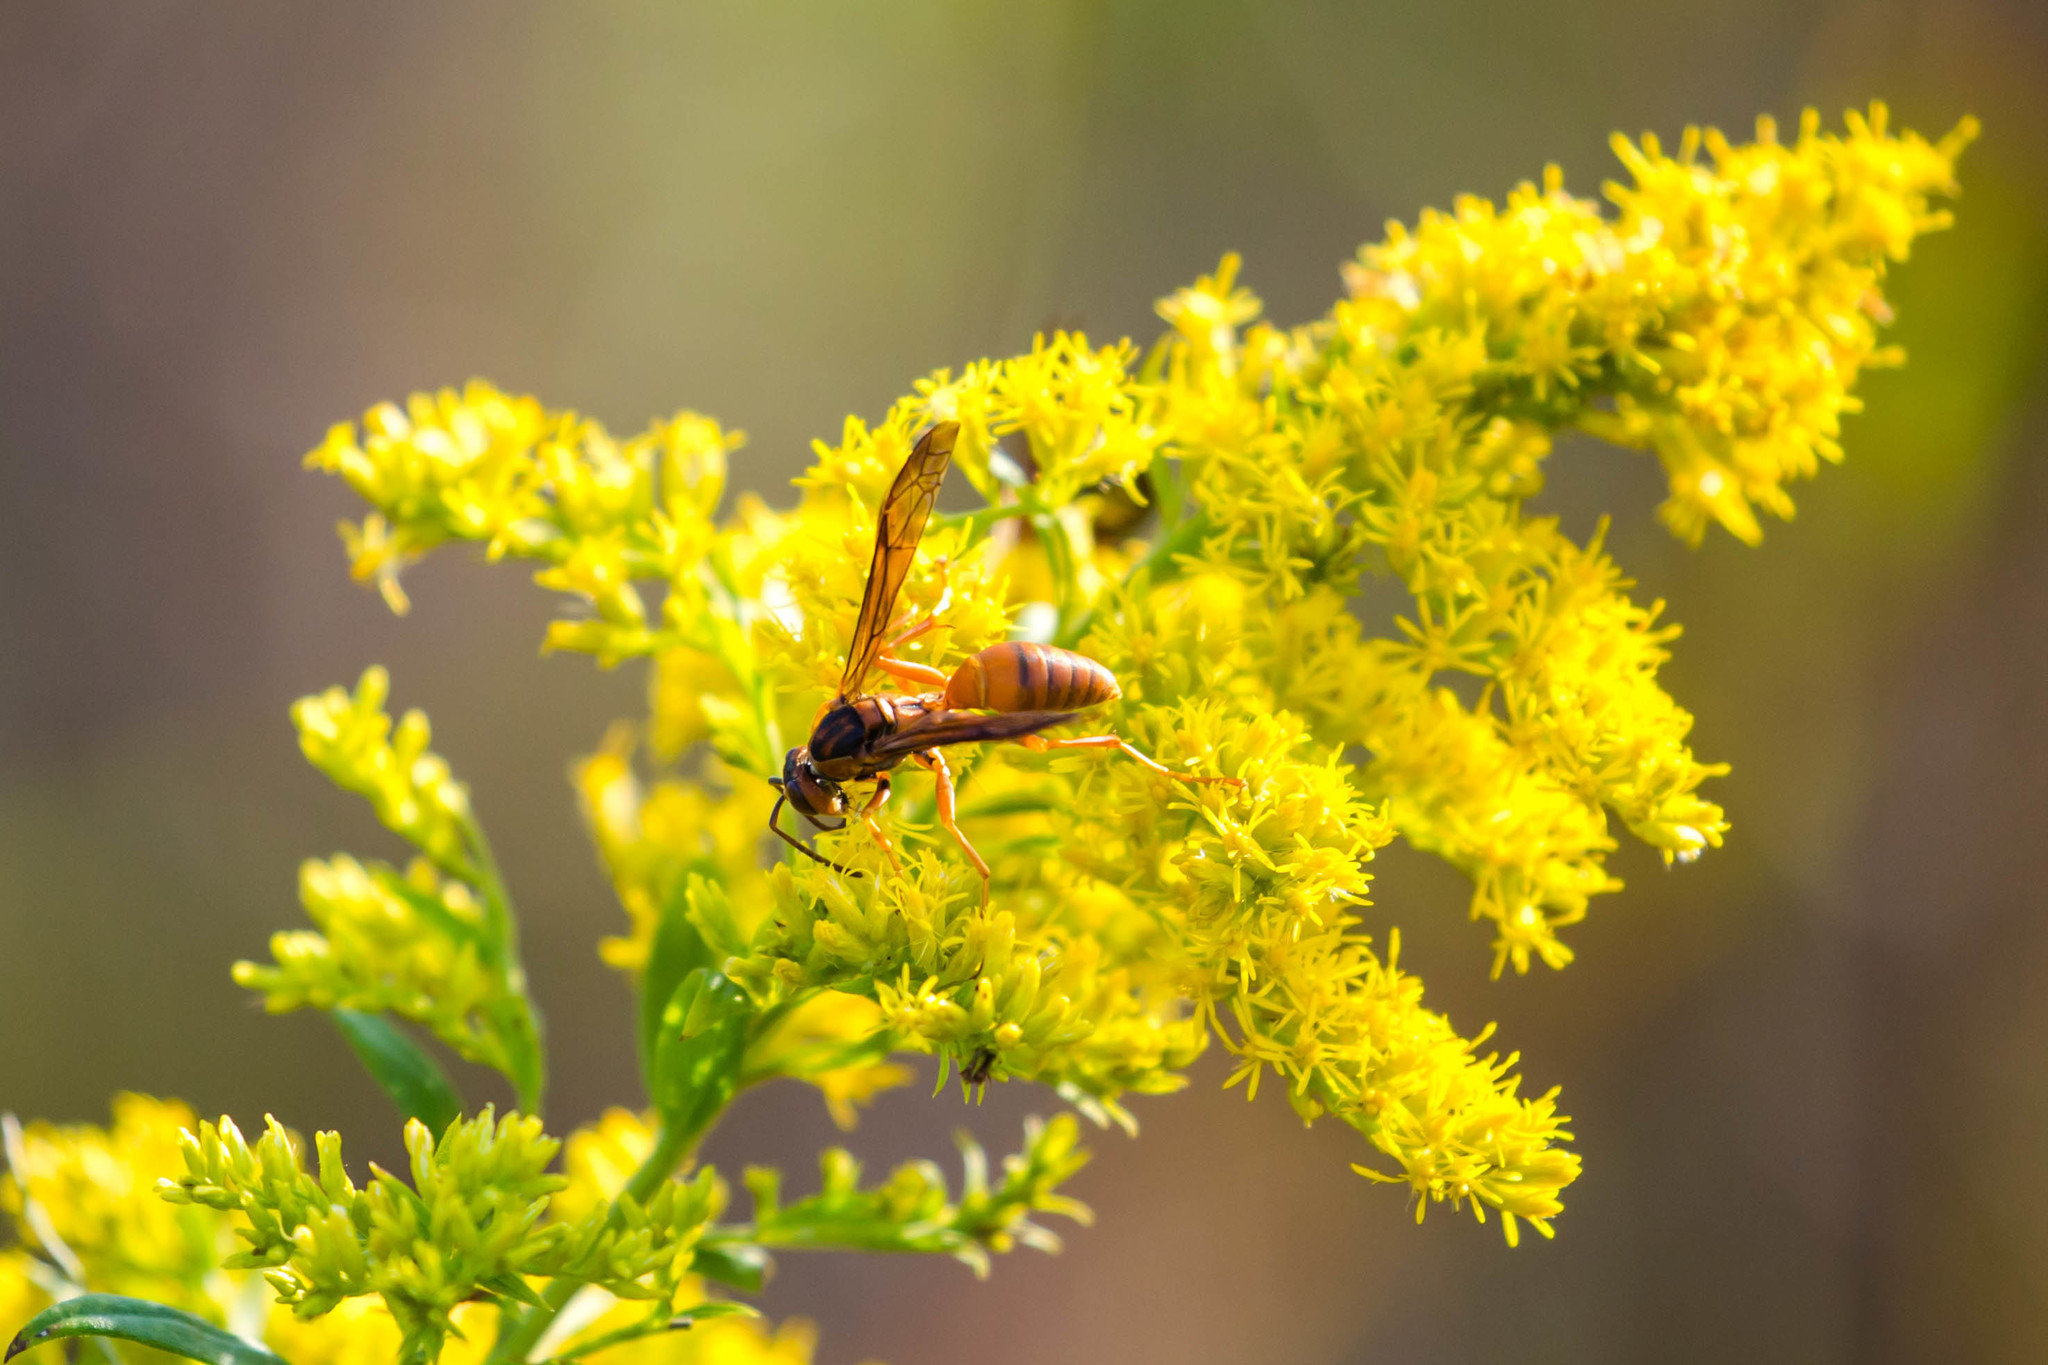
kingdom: Animalia
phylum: Arthropoda
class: Insecta
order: Hymenoptera
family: Eumenidae
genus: Polistes
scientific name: Polistes carolina
